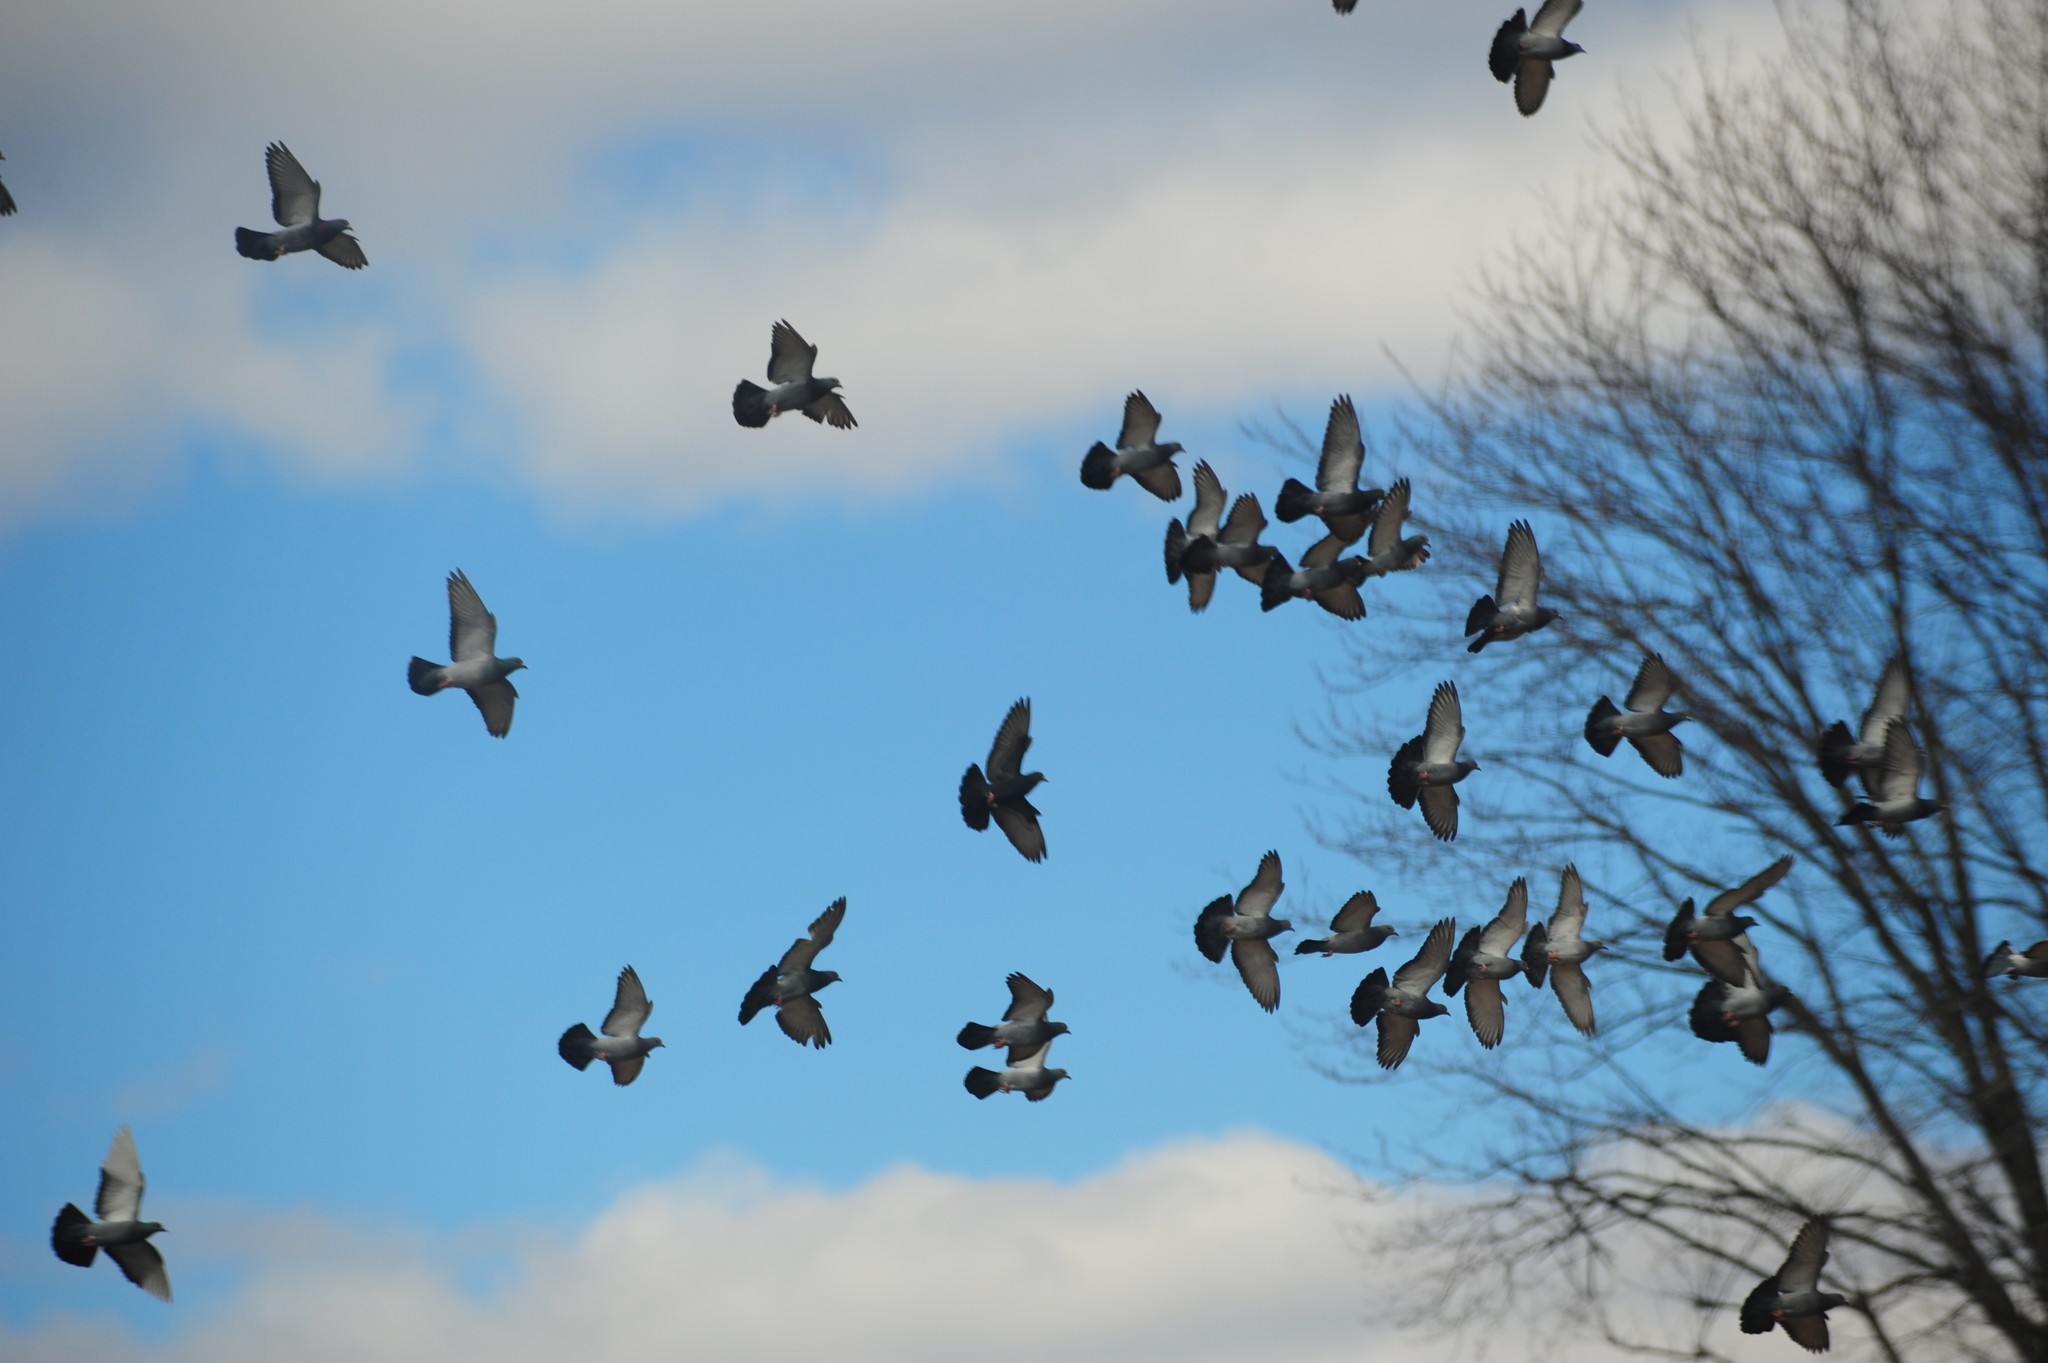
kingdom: Animalia
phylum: Chordata
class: Aves
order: Columbiformes
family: Columbidae
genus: Columba
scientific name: Columba livia
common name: Rock pigeon
